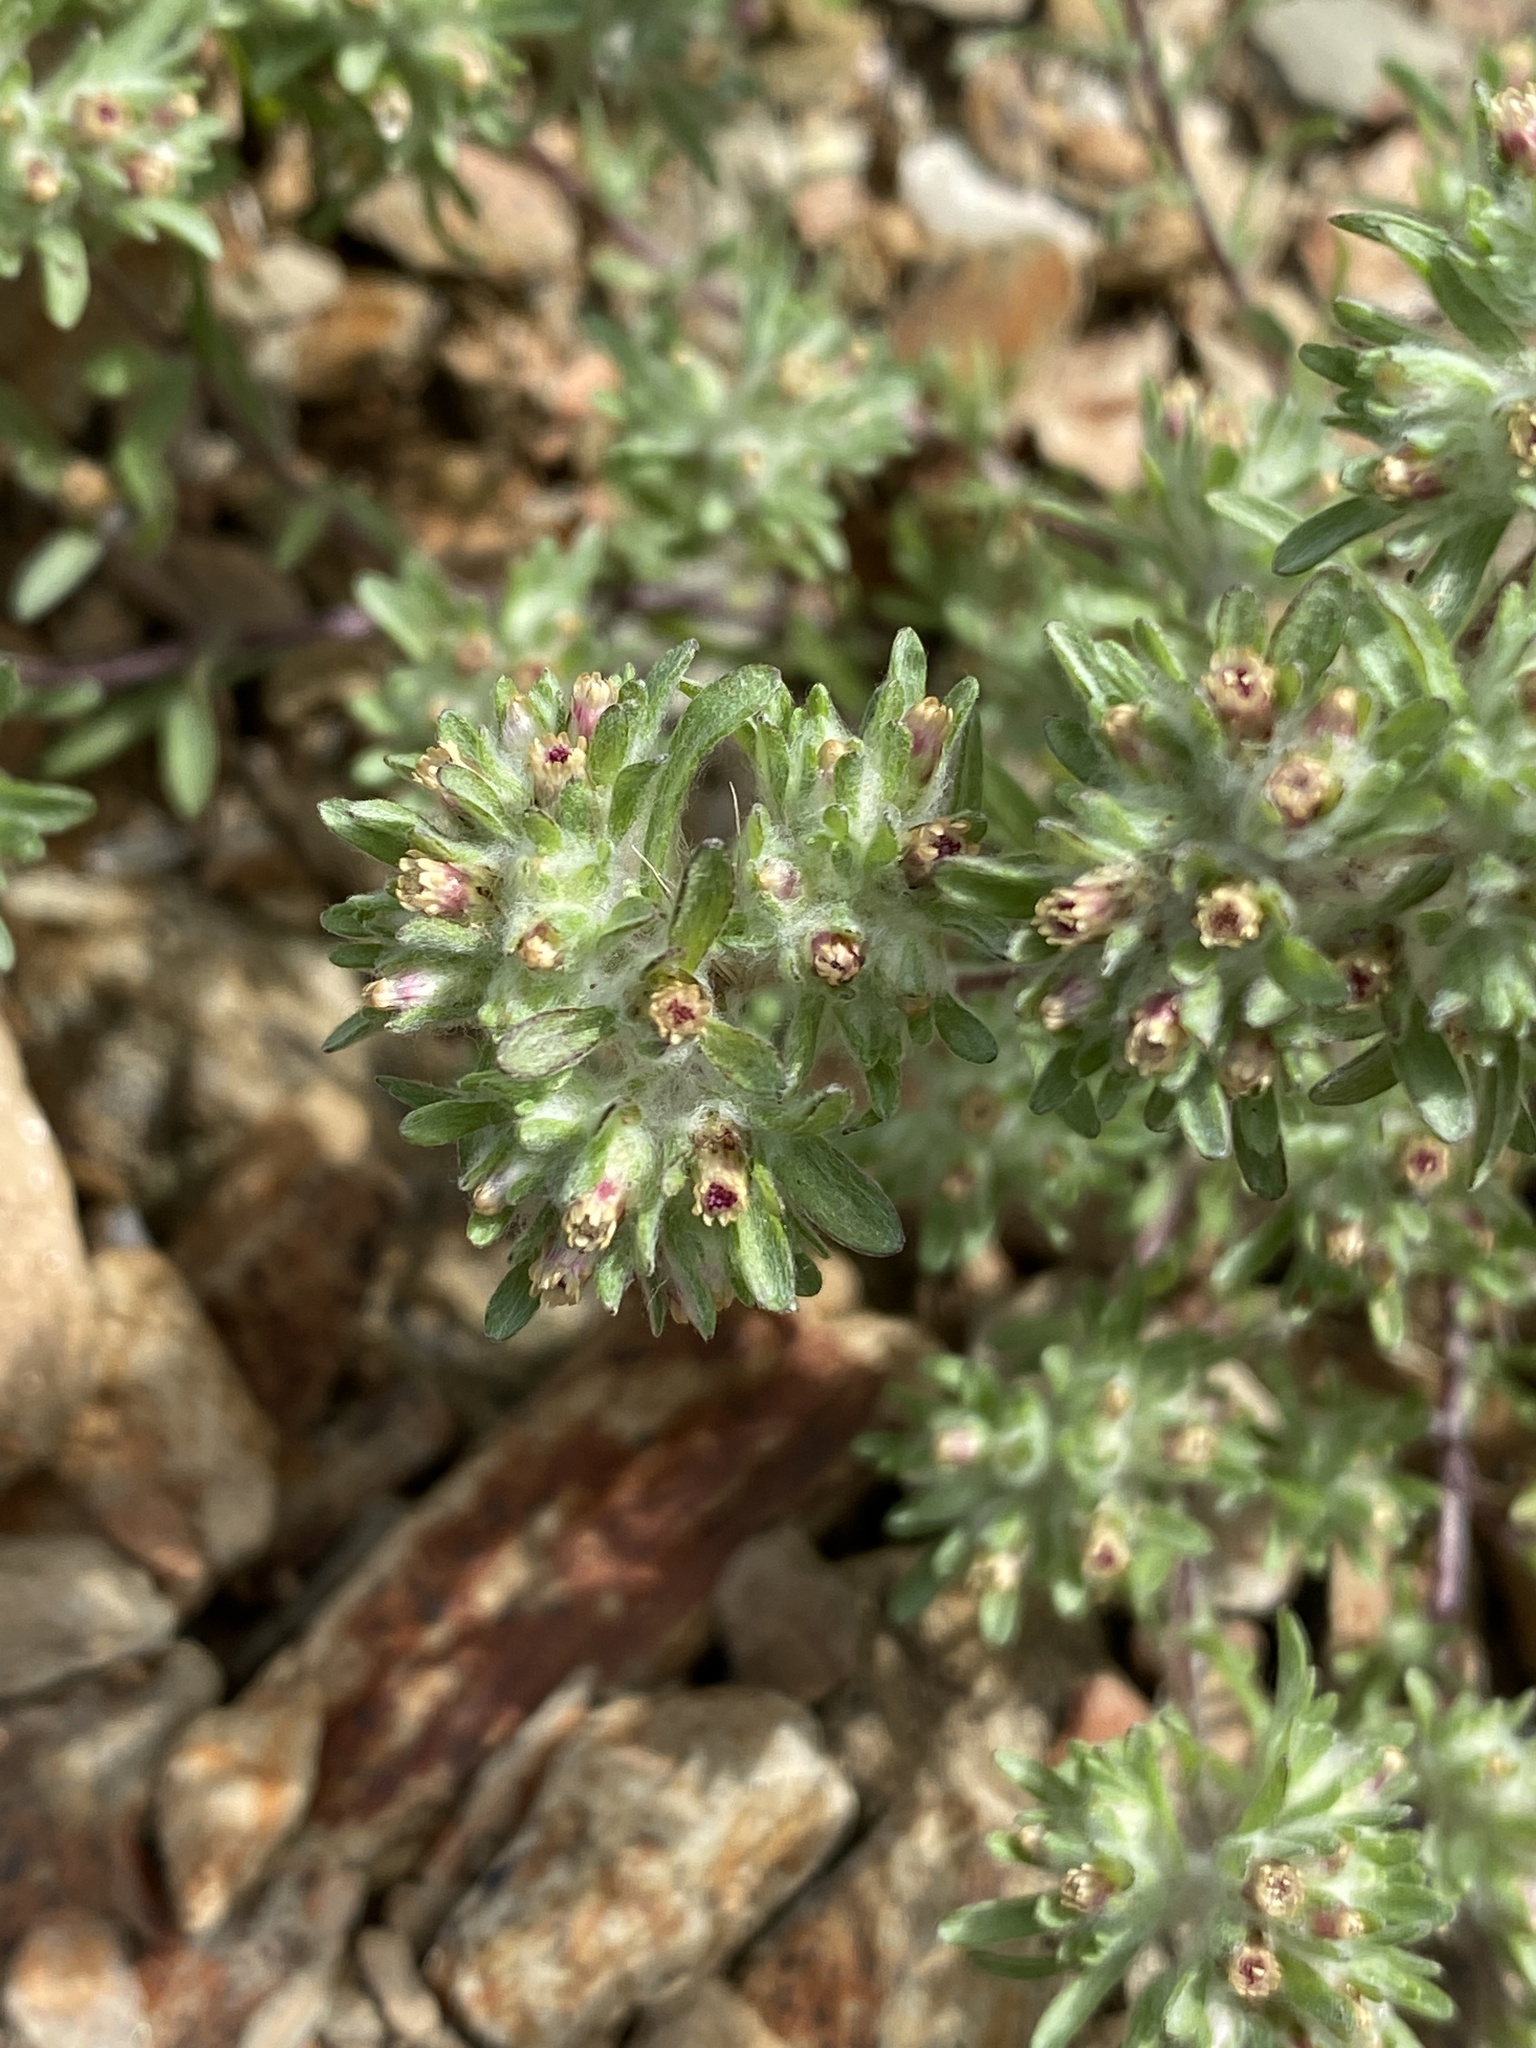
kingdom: Plantae
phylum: Tracheophyta
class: Magnoliopsida
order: Asterales
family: Asteraceae
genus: Lasiopogon
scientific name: Lasiopogon glomerulatus
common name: Green cat thorn
